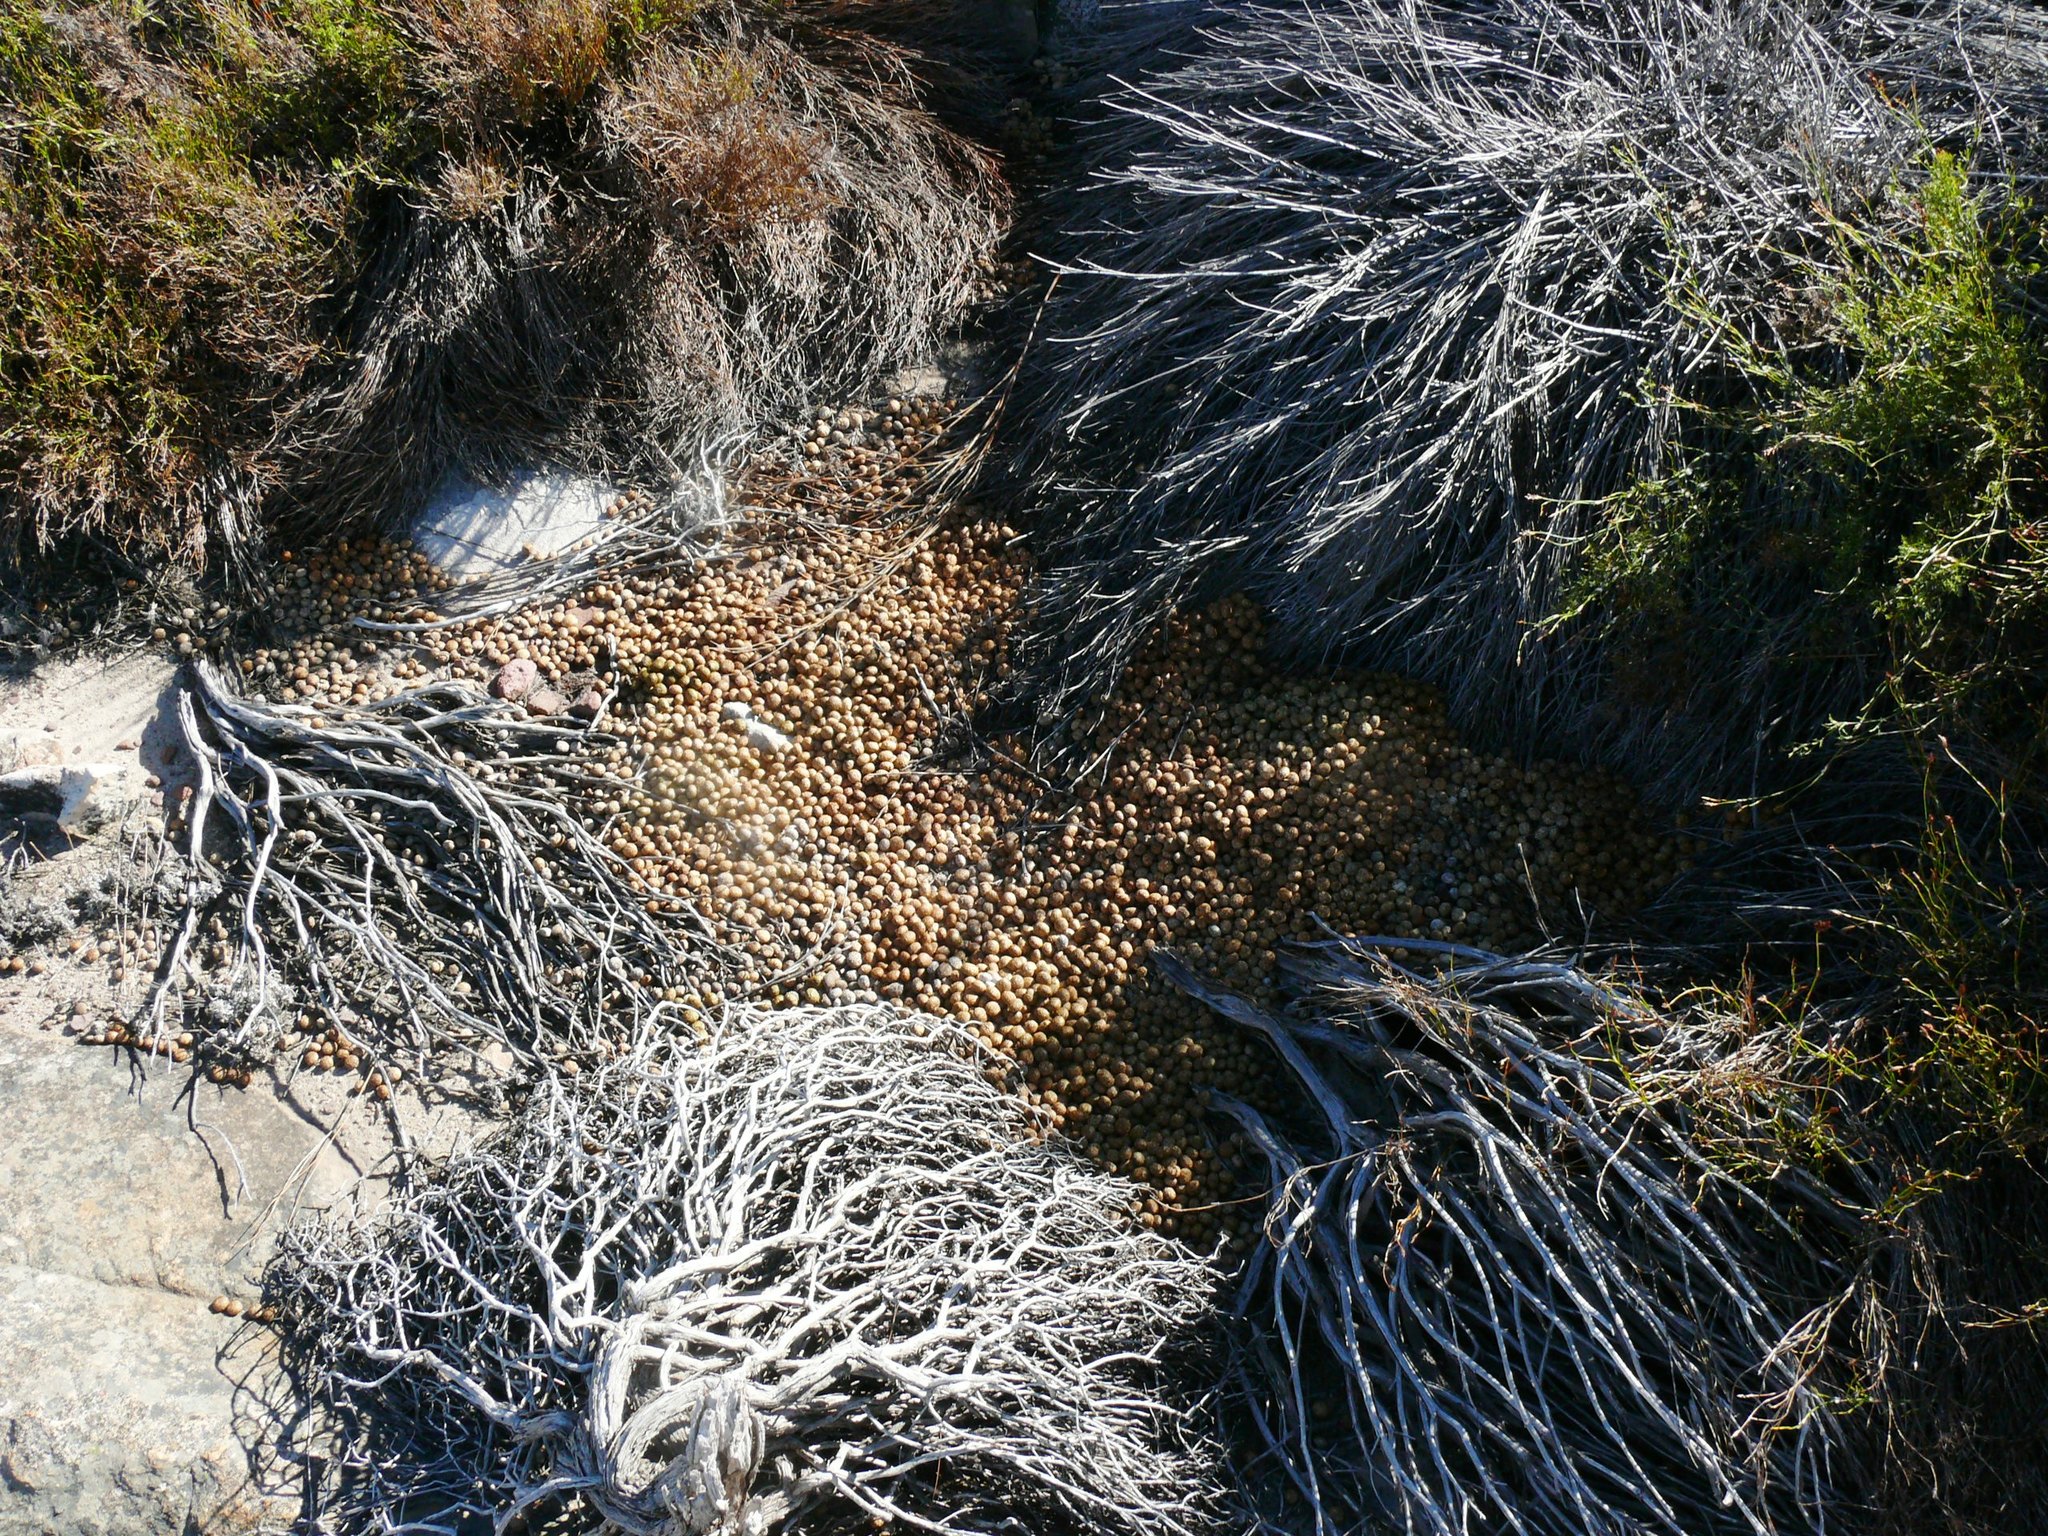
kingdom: Animalia
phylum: Chordata
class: Mammalia
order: Lagomorpha
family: Leporidae
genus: Pronolagus
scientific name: Pronolagus saundersiae
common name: Hewitt's red rock hare
